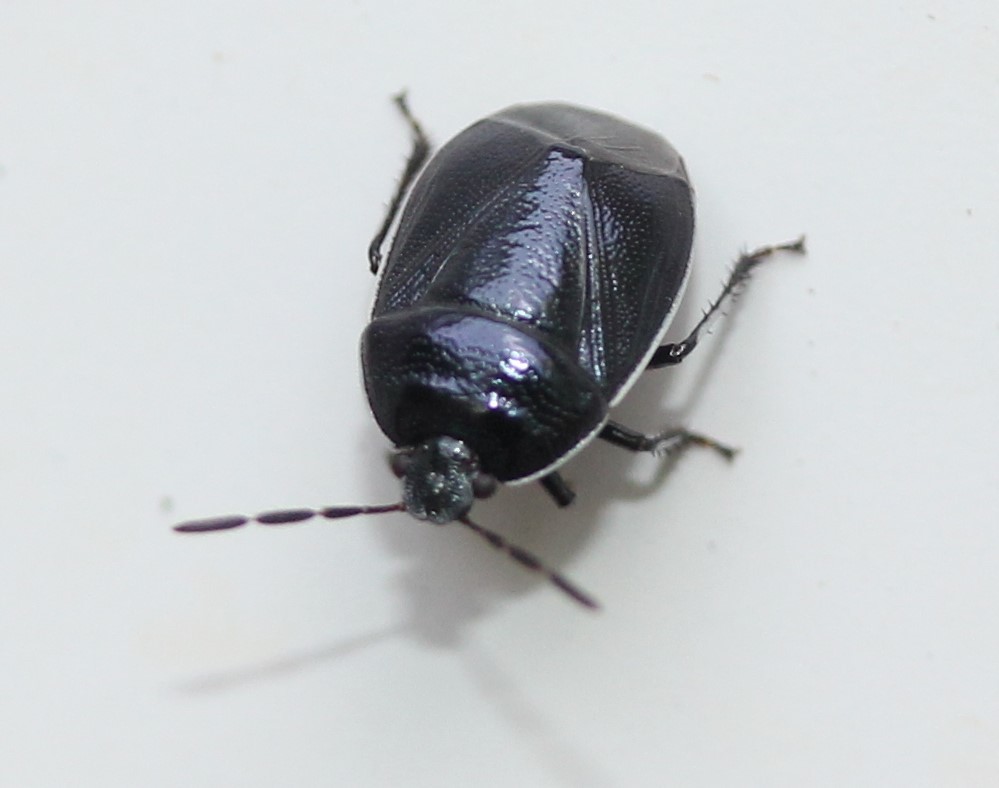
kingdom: Animalia
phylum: Arthropoda
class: Insecta
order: Hemiptera
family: Cydnidae
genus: Sehirus
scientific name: Sehirus cinctus
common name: White-margined burrower bug
